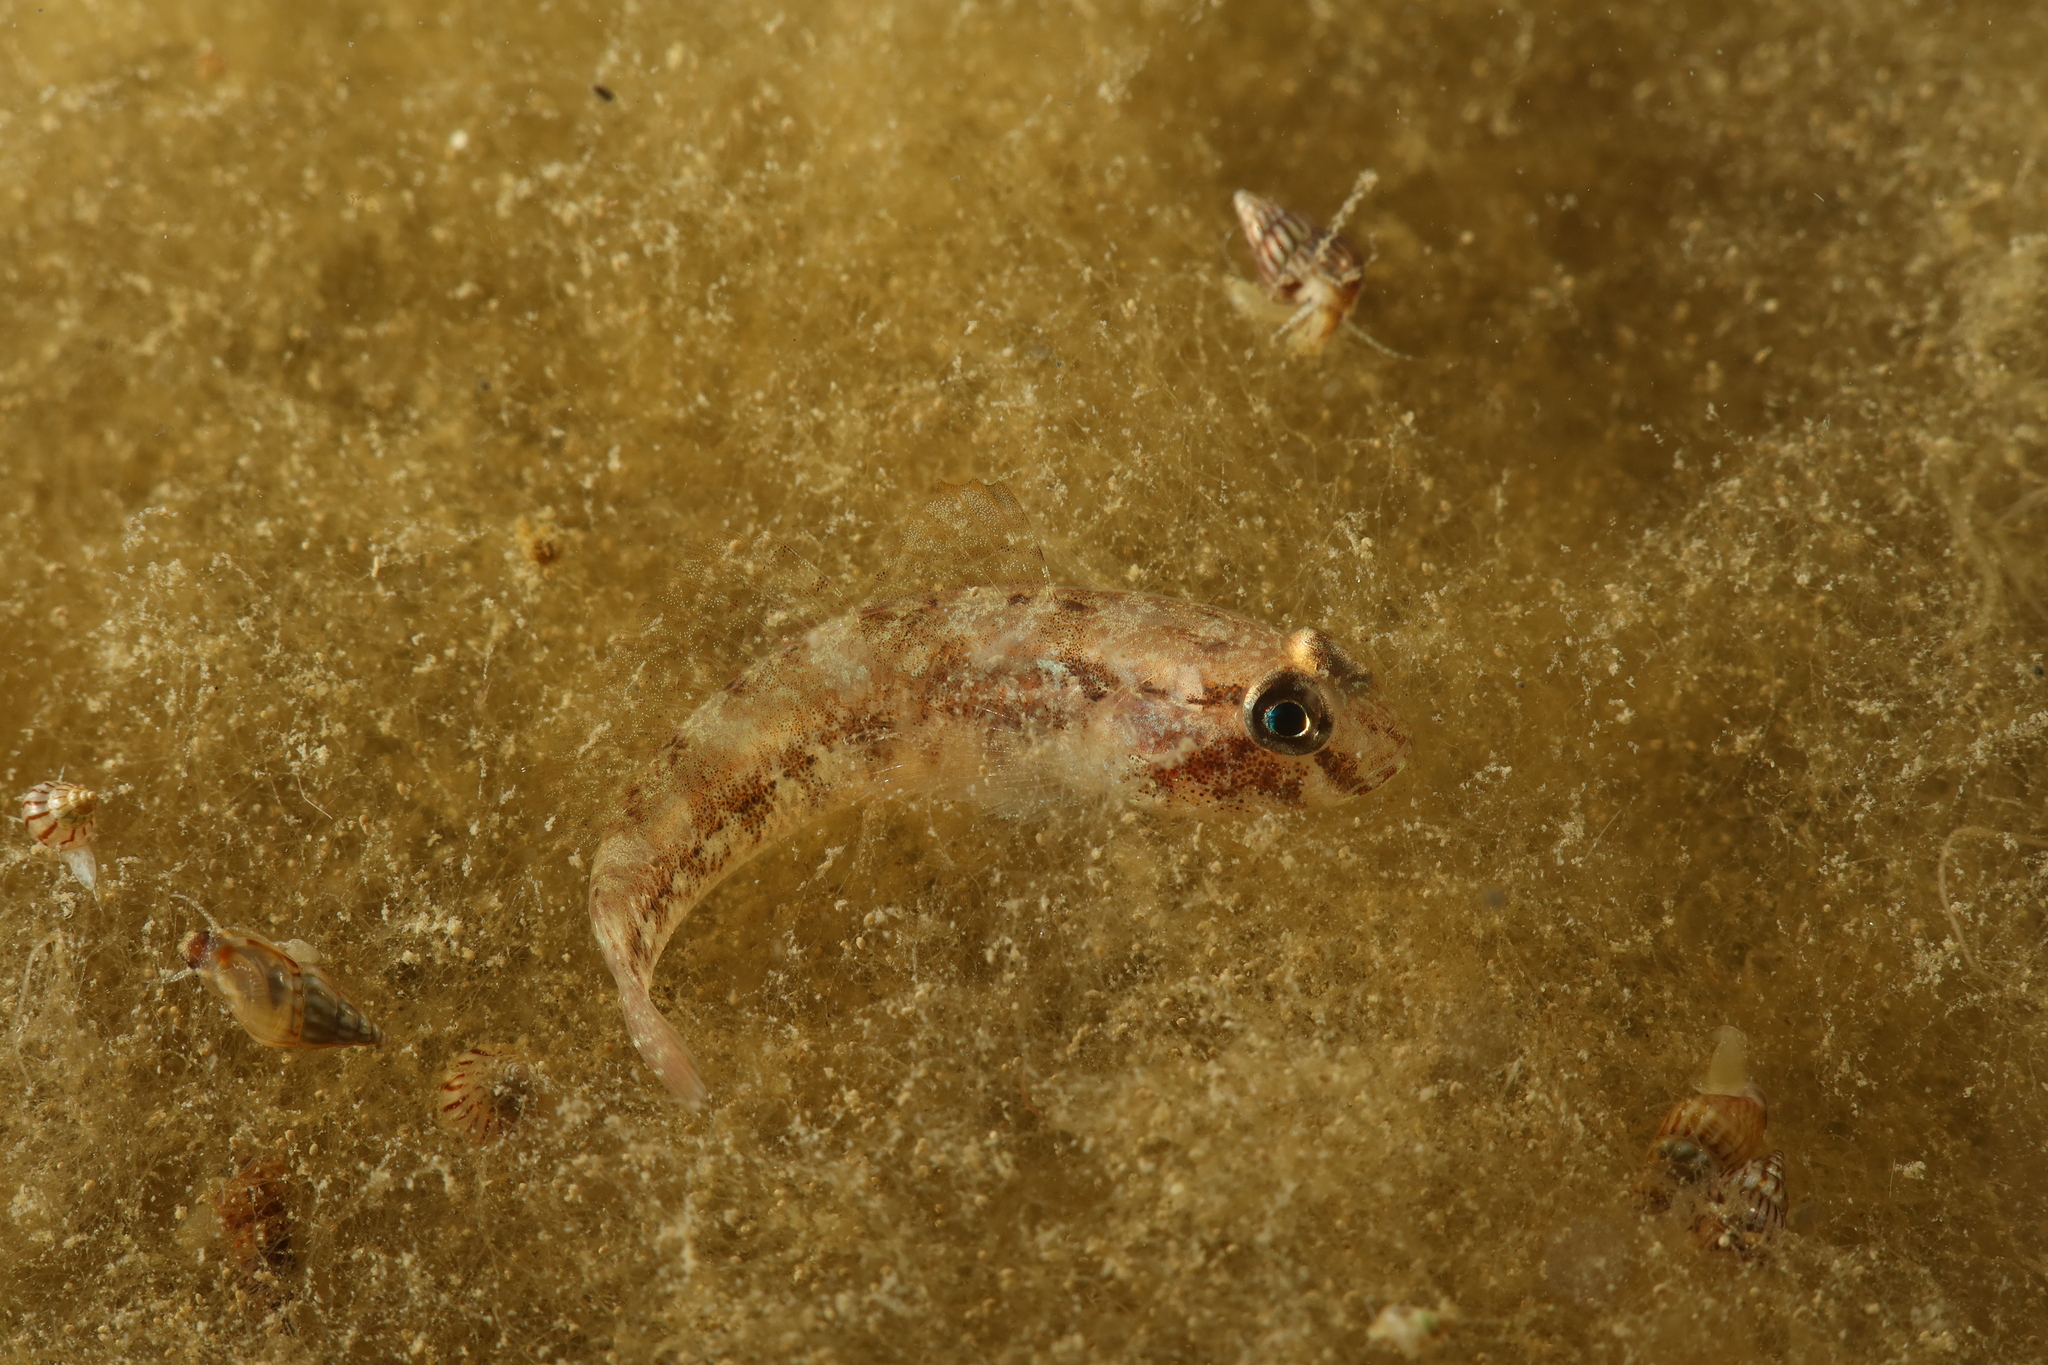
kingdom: Animalia
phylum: Chordata
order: Perciformes
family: Gobiidae
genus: Gobius
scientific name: Gobius niger
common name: Black goby
